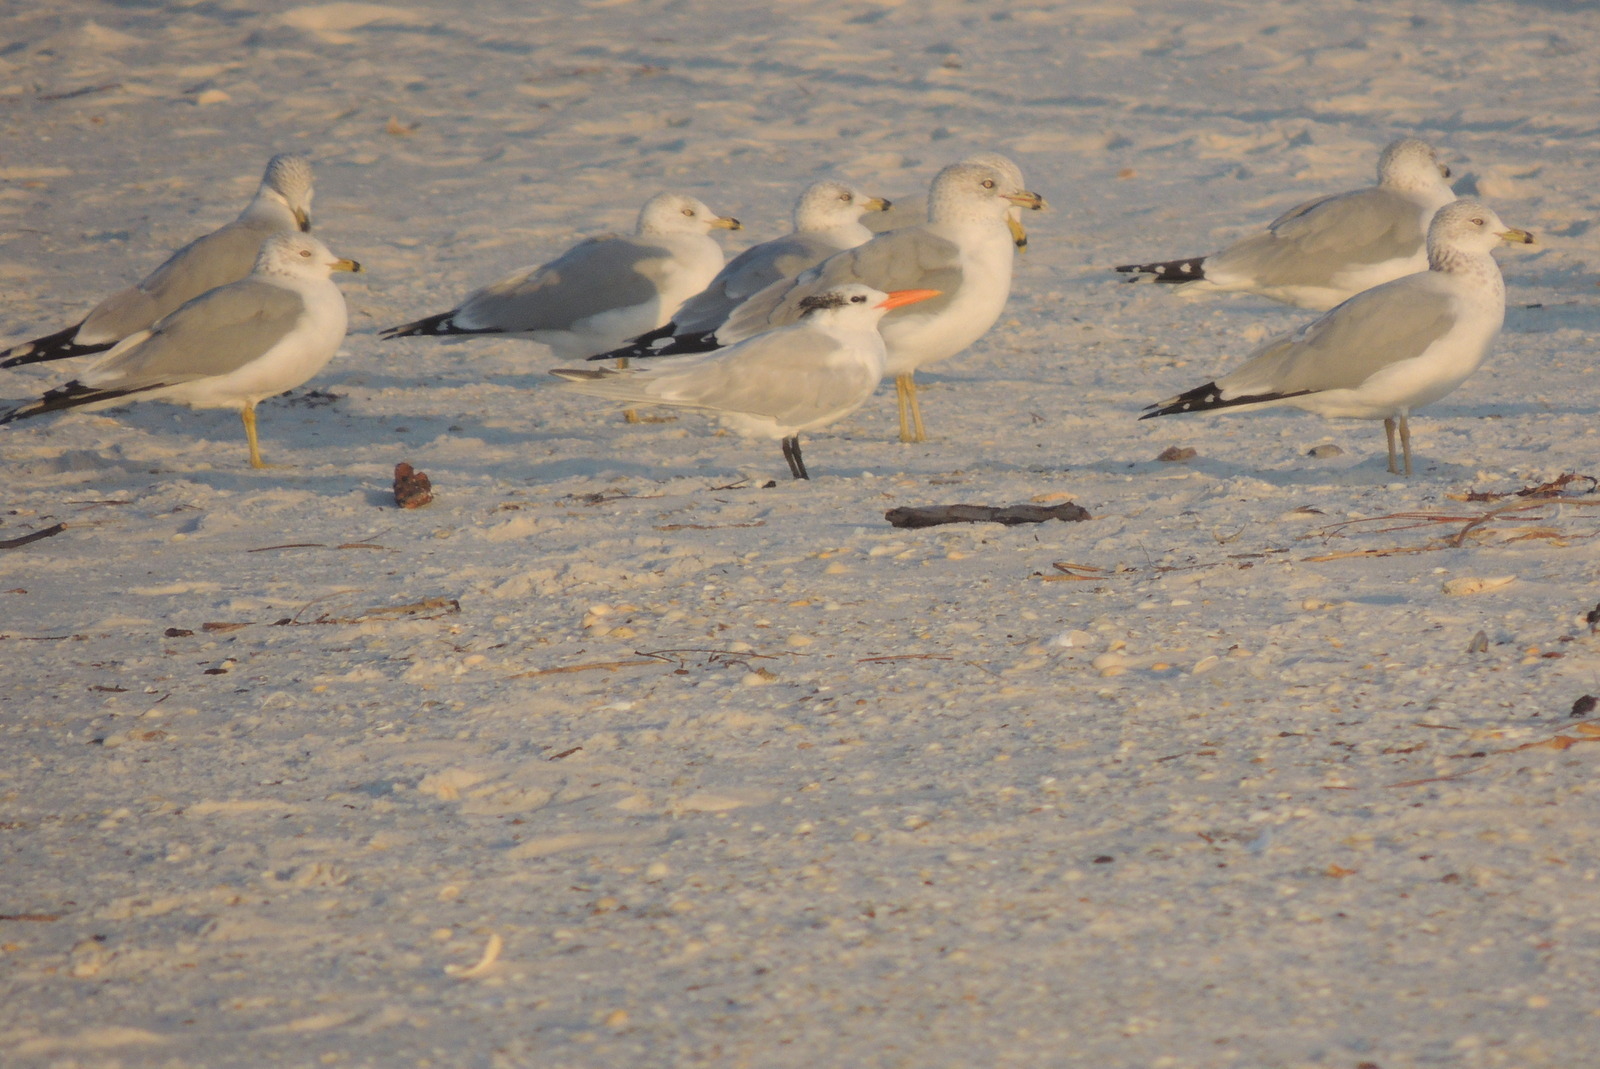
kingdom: Animalia
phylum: Chordata
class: Aves
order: Charadriiformes
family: Laridae
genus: Larus
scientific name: Larus delawarensis
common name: Ring-billed gull
